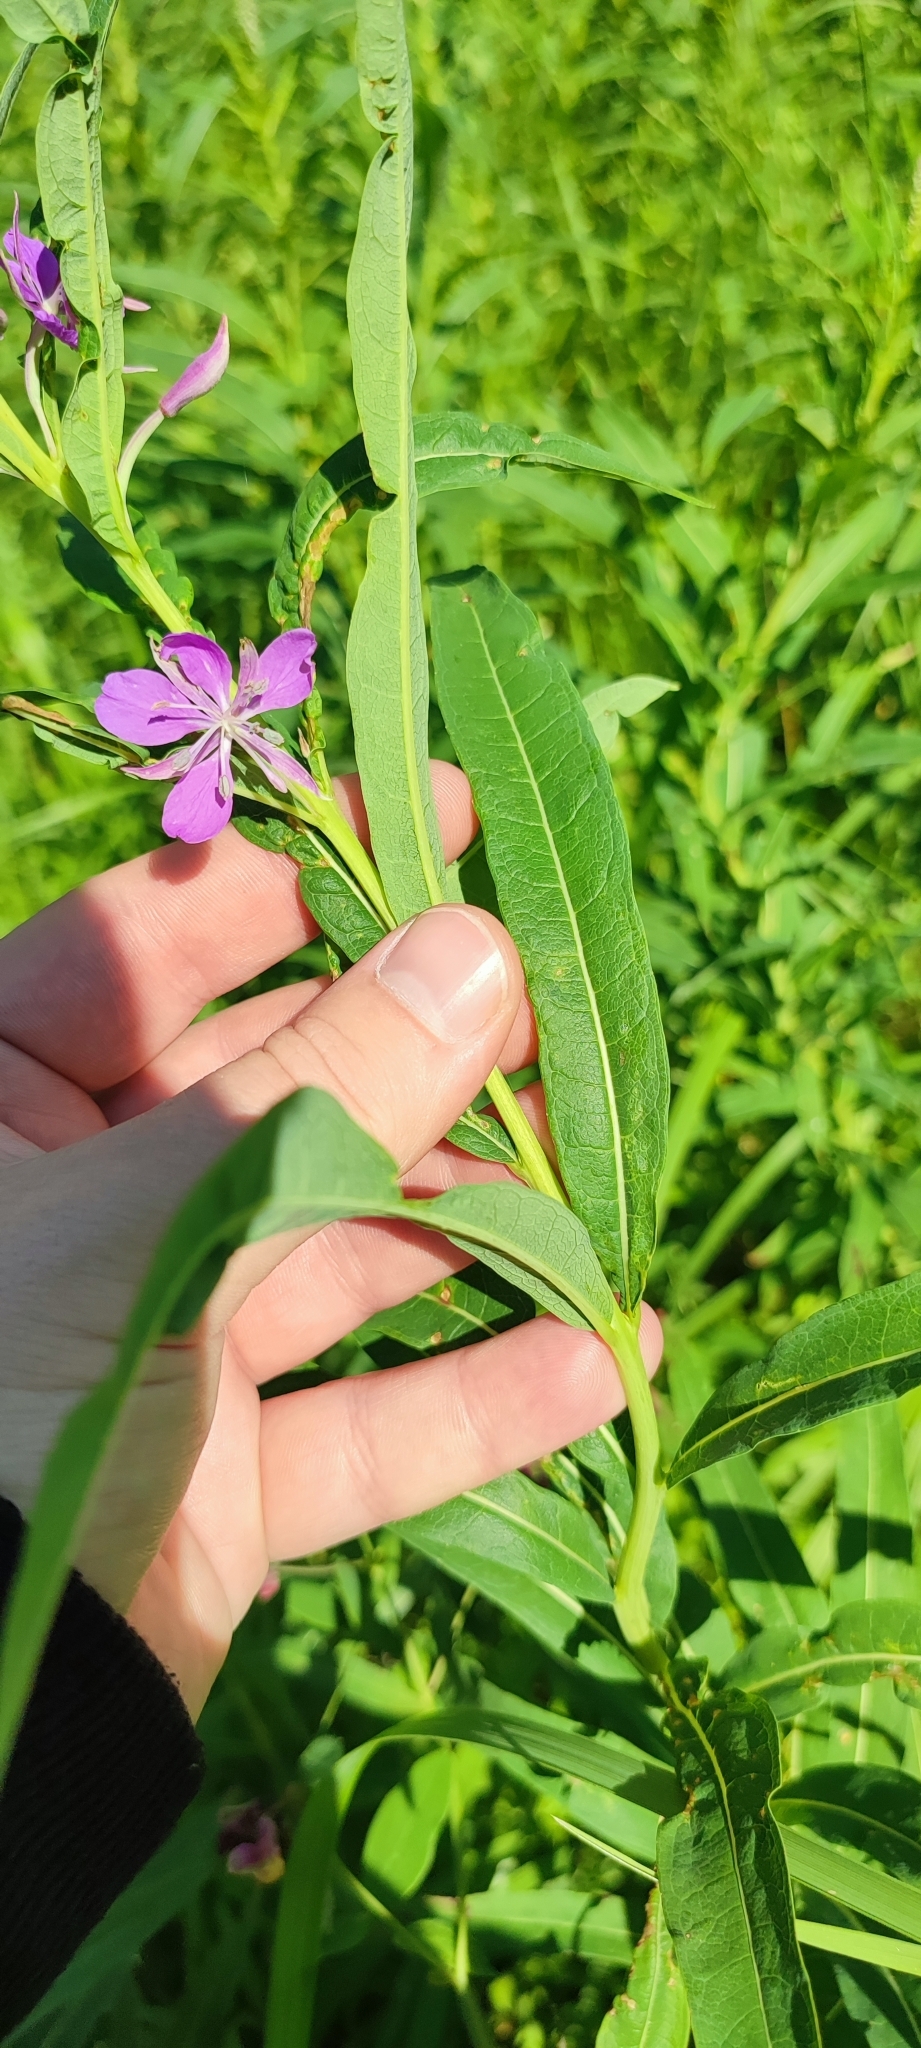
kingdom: Plantae
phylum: Tracheophyta
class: Magnoliopsida
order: Myrtales
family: Onagraceae
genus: Chamaenerion
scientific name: Chamaenerion angustifolium
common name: Fireweed
